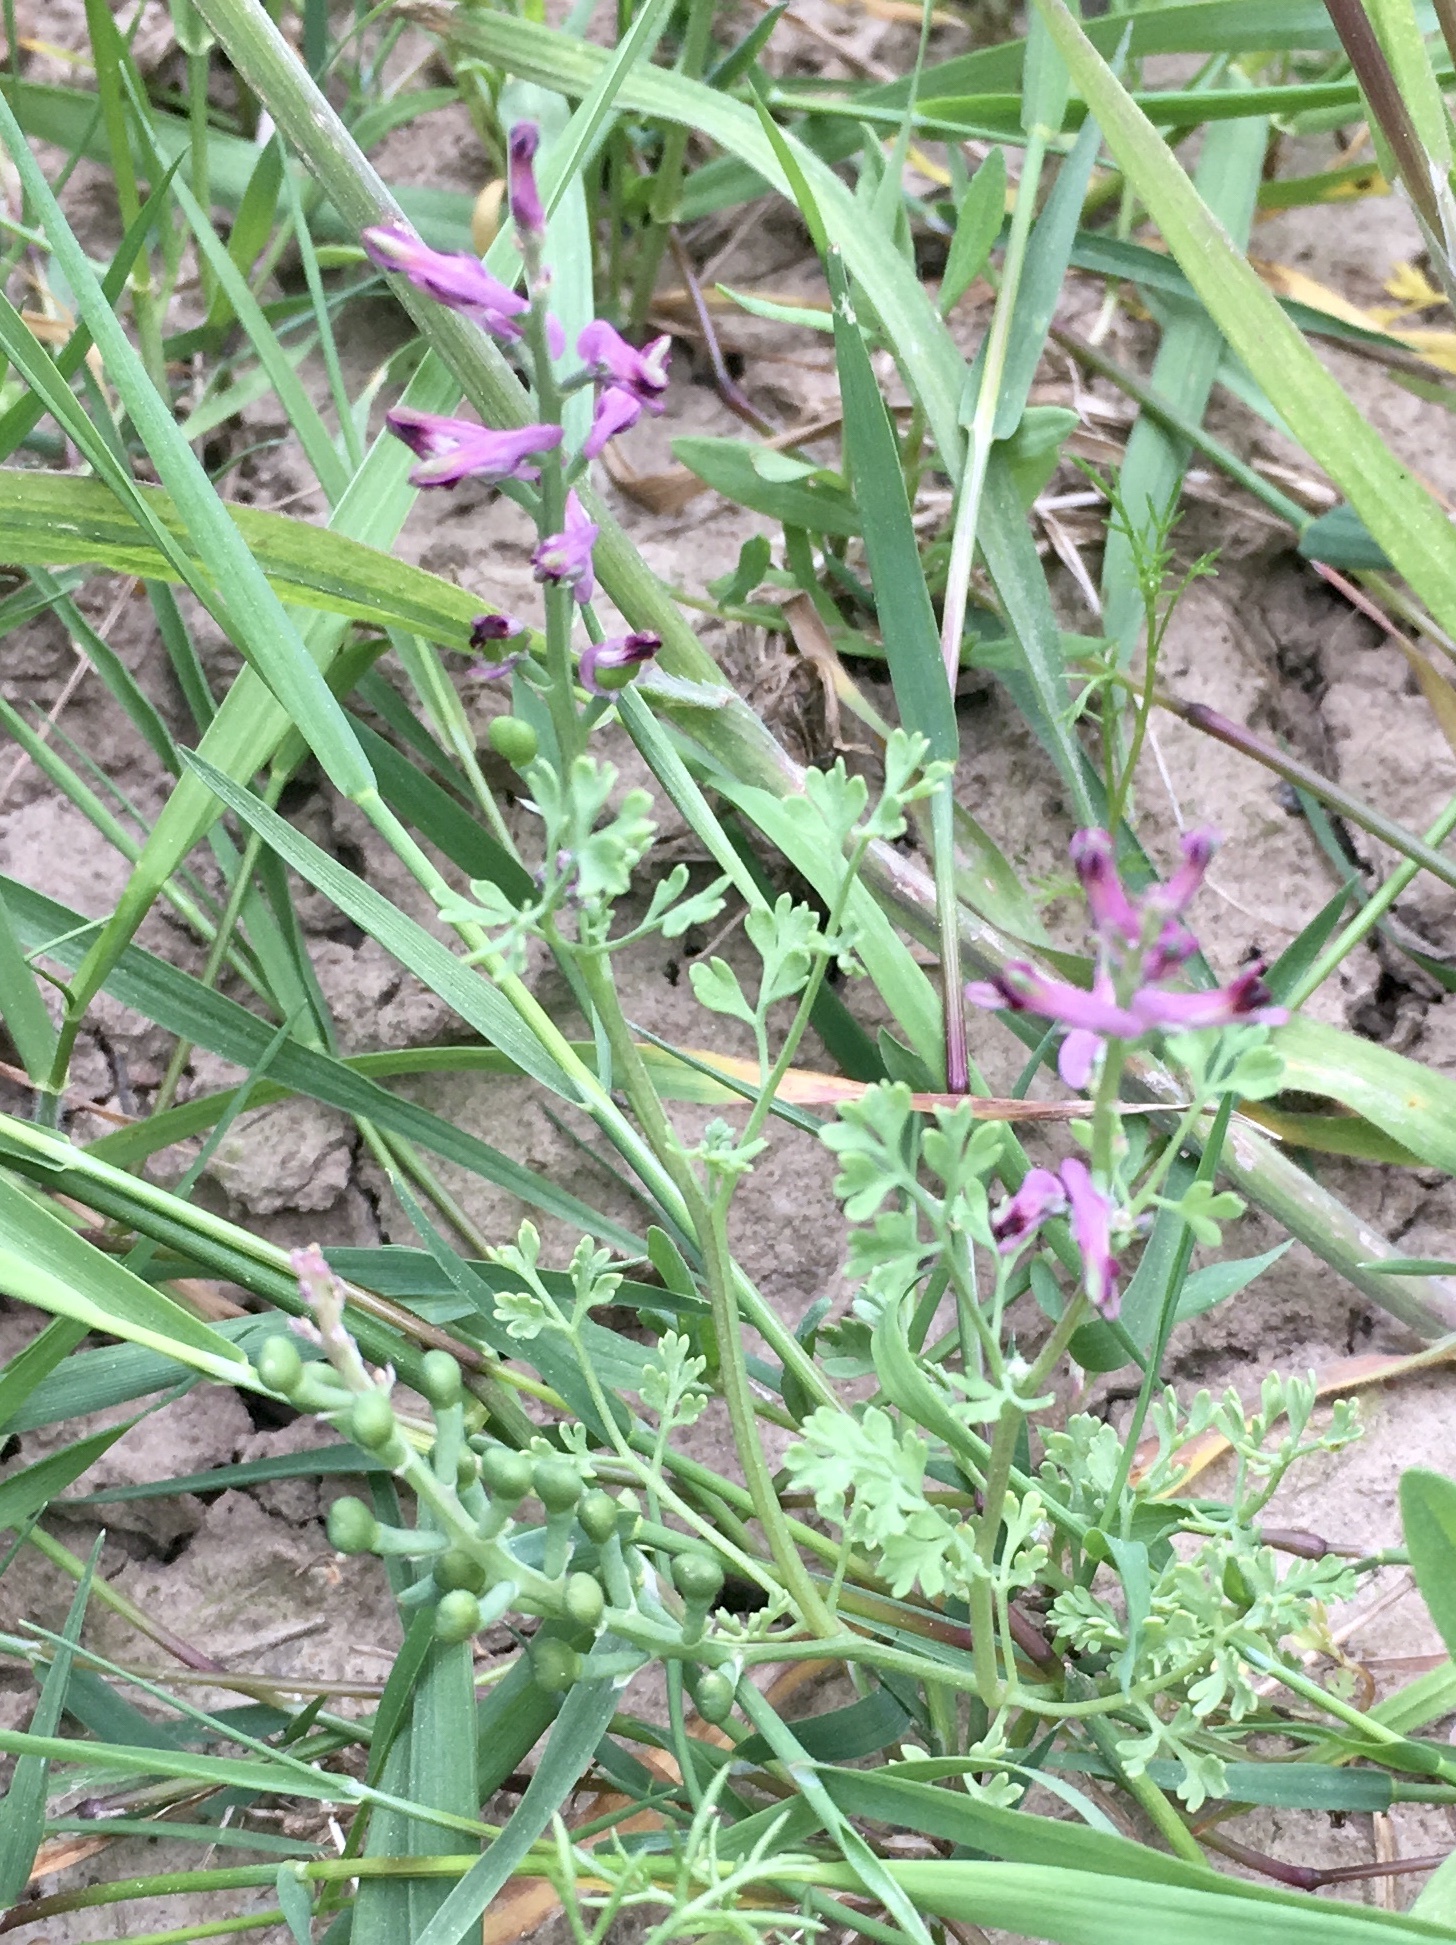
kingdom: Plantae
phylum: Tracheophyta
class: Magnoliopsida
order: Ranunculales
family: Papaveraceae
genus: Fumaria
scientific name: Fumaria officinalis
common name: Common fumitory
